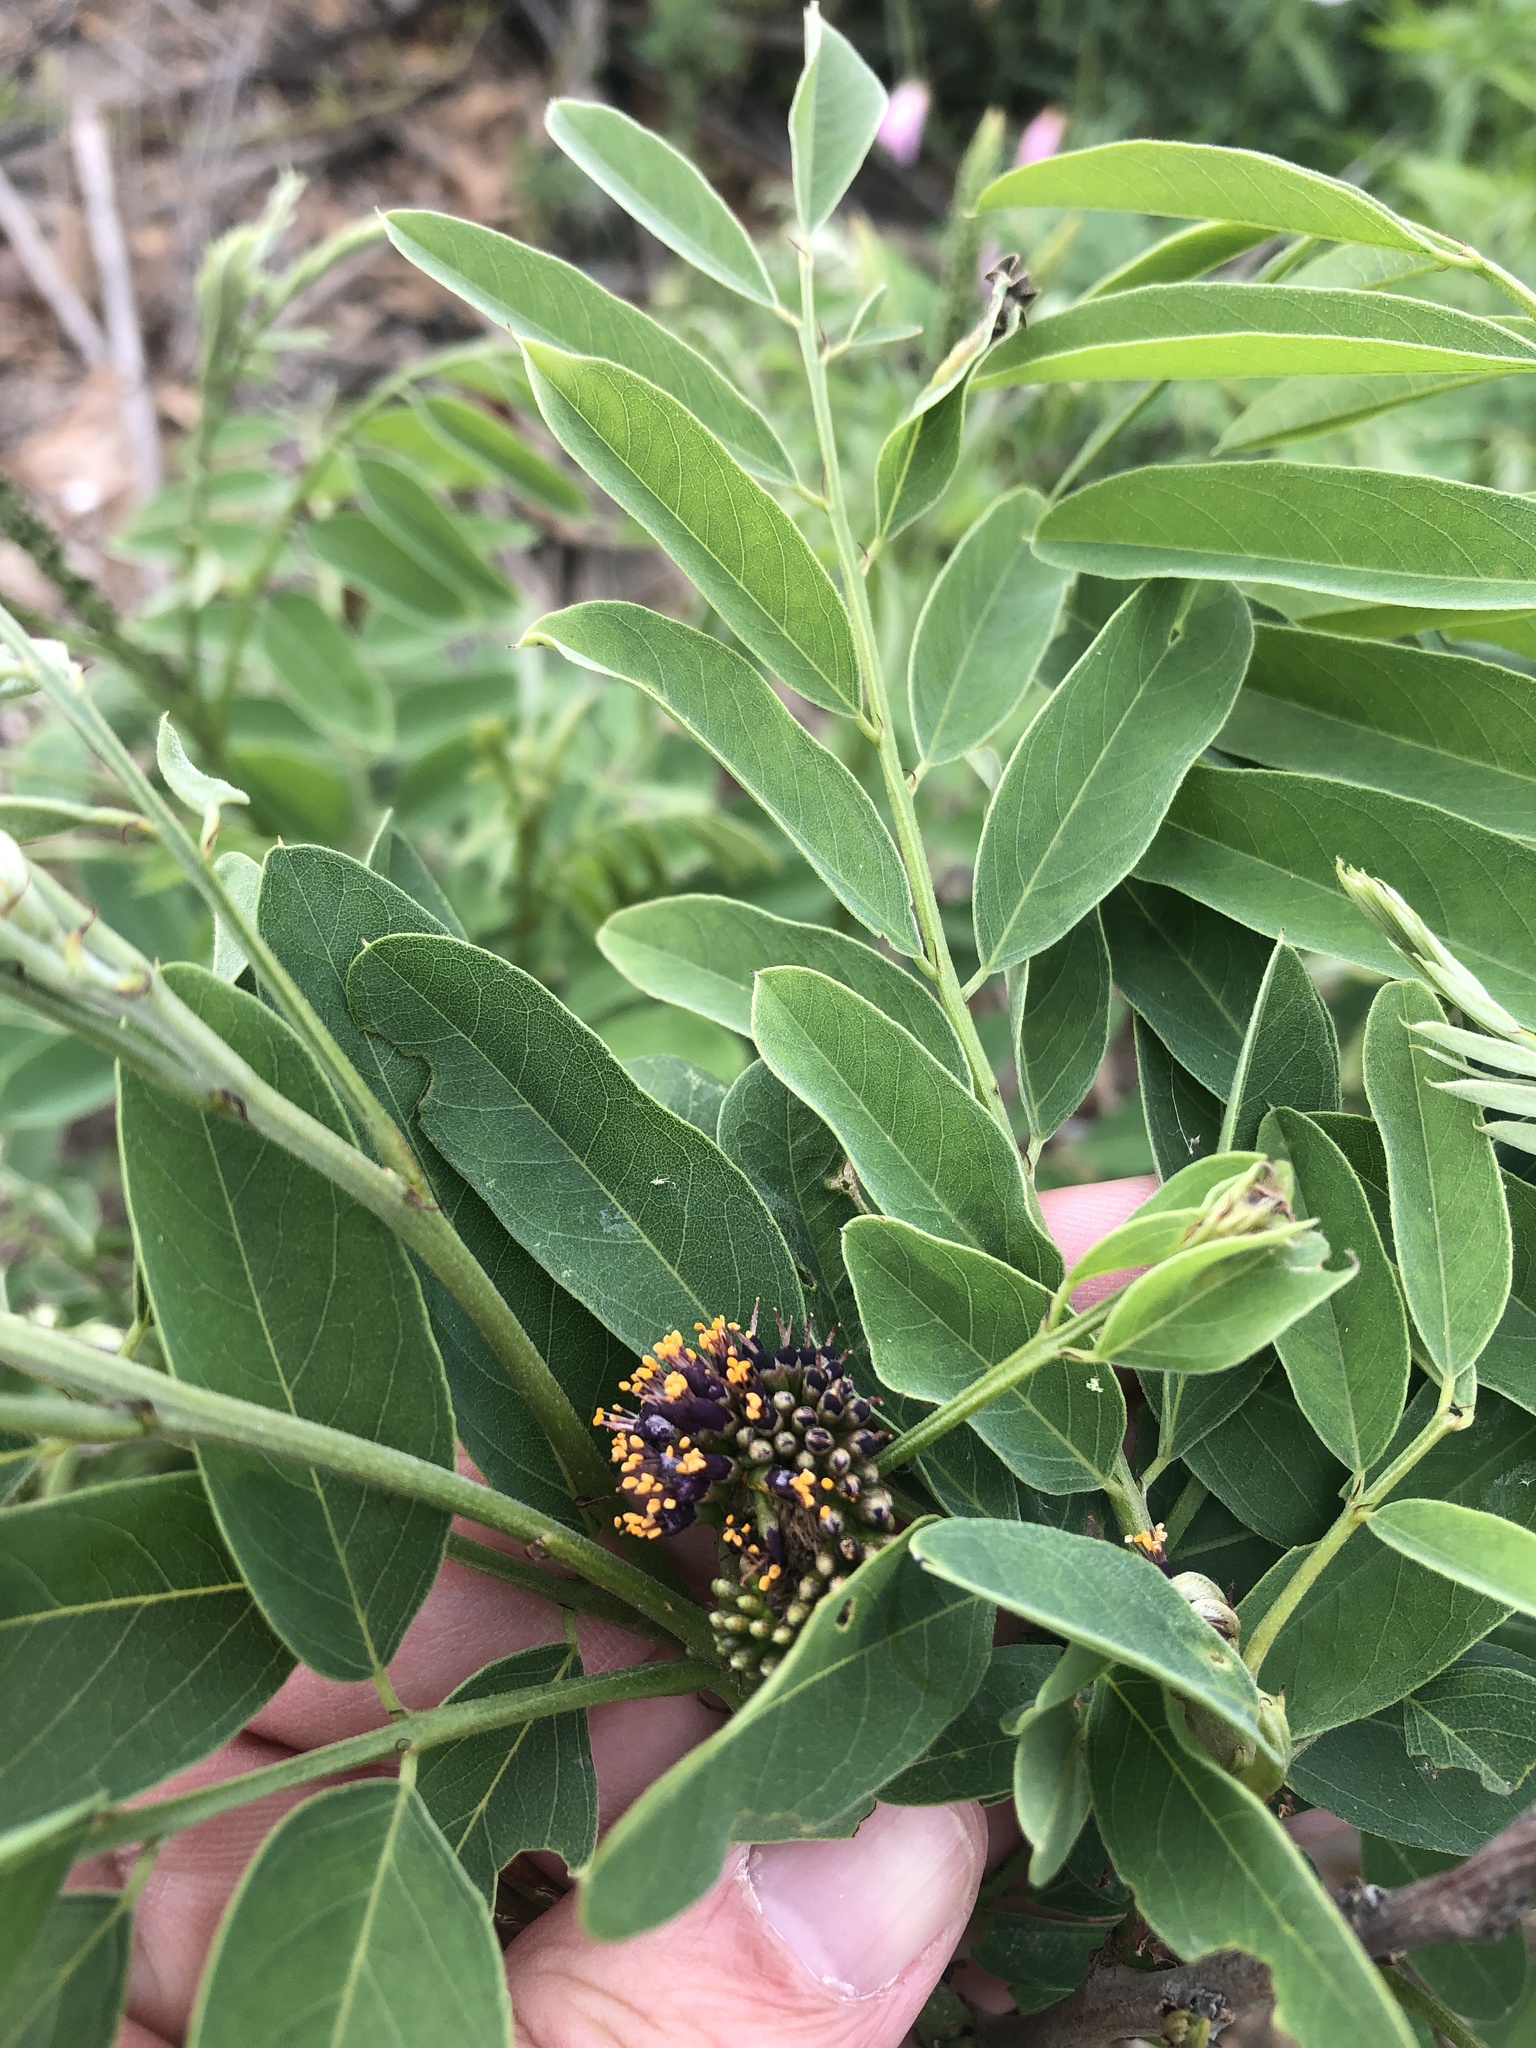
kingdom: Plantae
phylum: Tracheophyta
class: Magnoliopsida
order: Fabales
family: Fabaceae
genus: Amorpha
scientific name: Amorpha fruticosa
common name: False indigo
